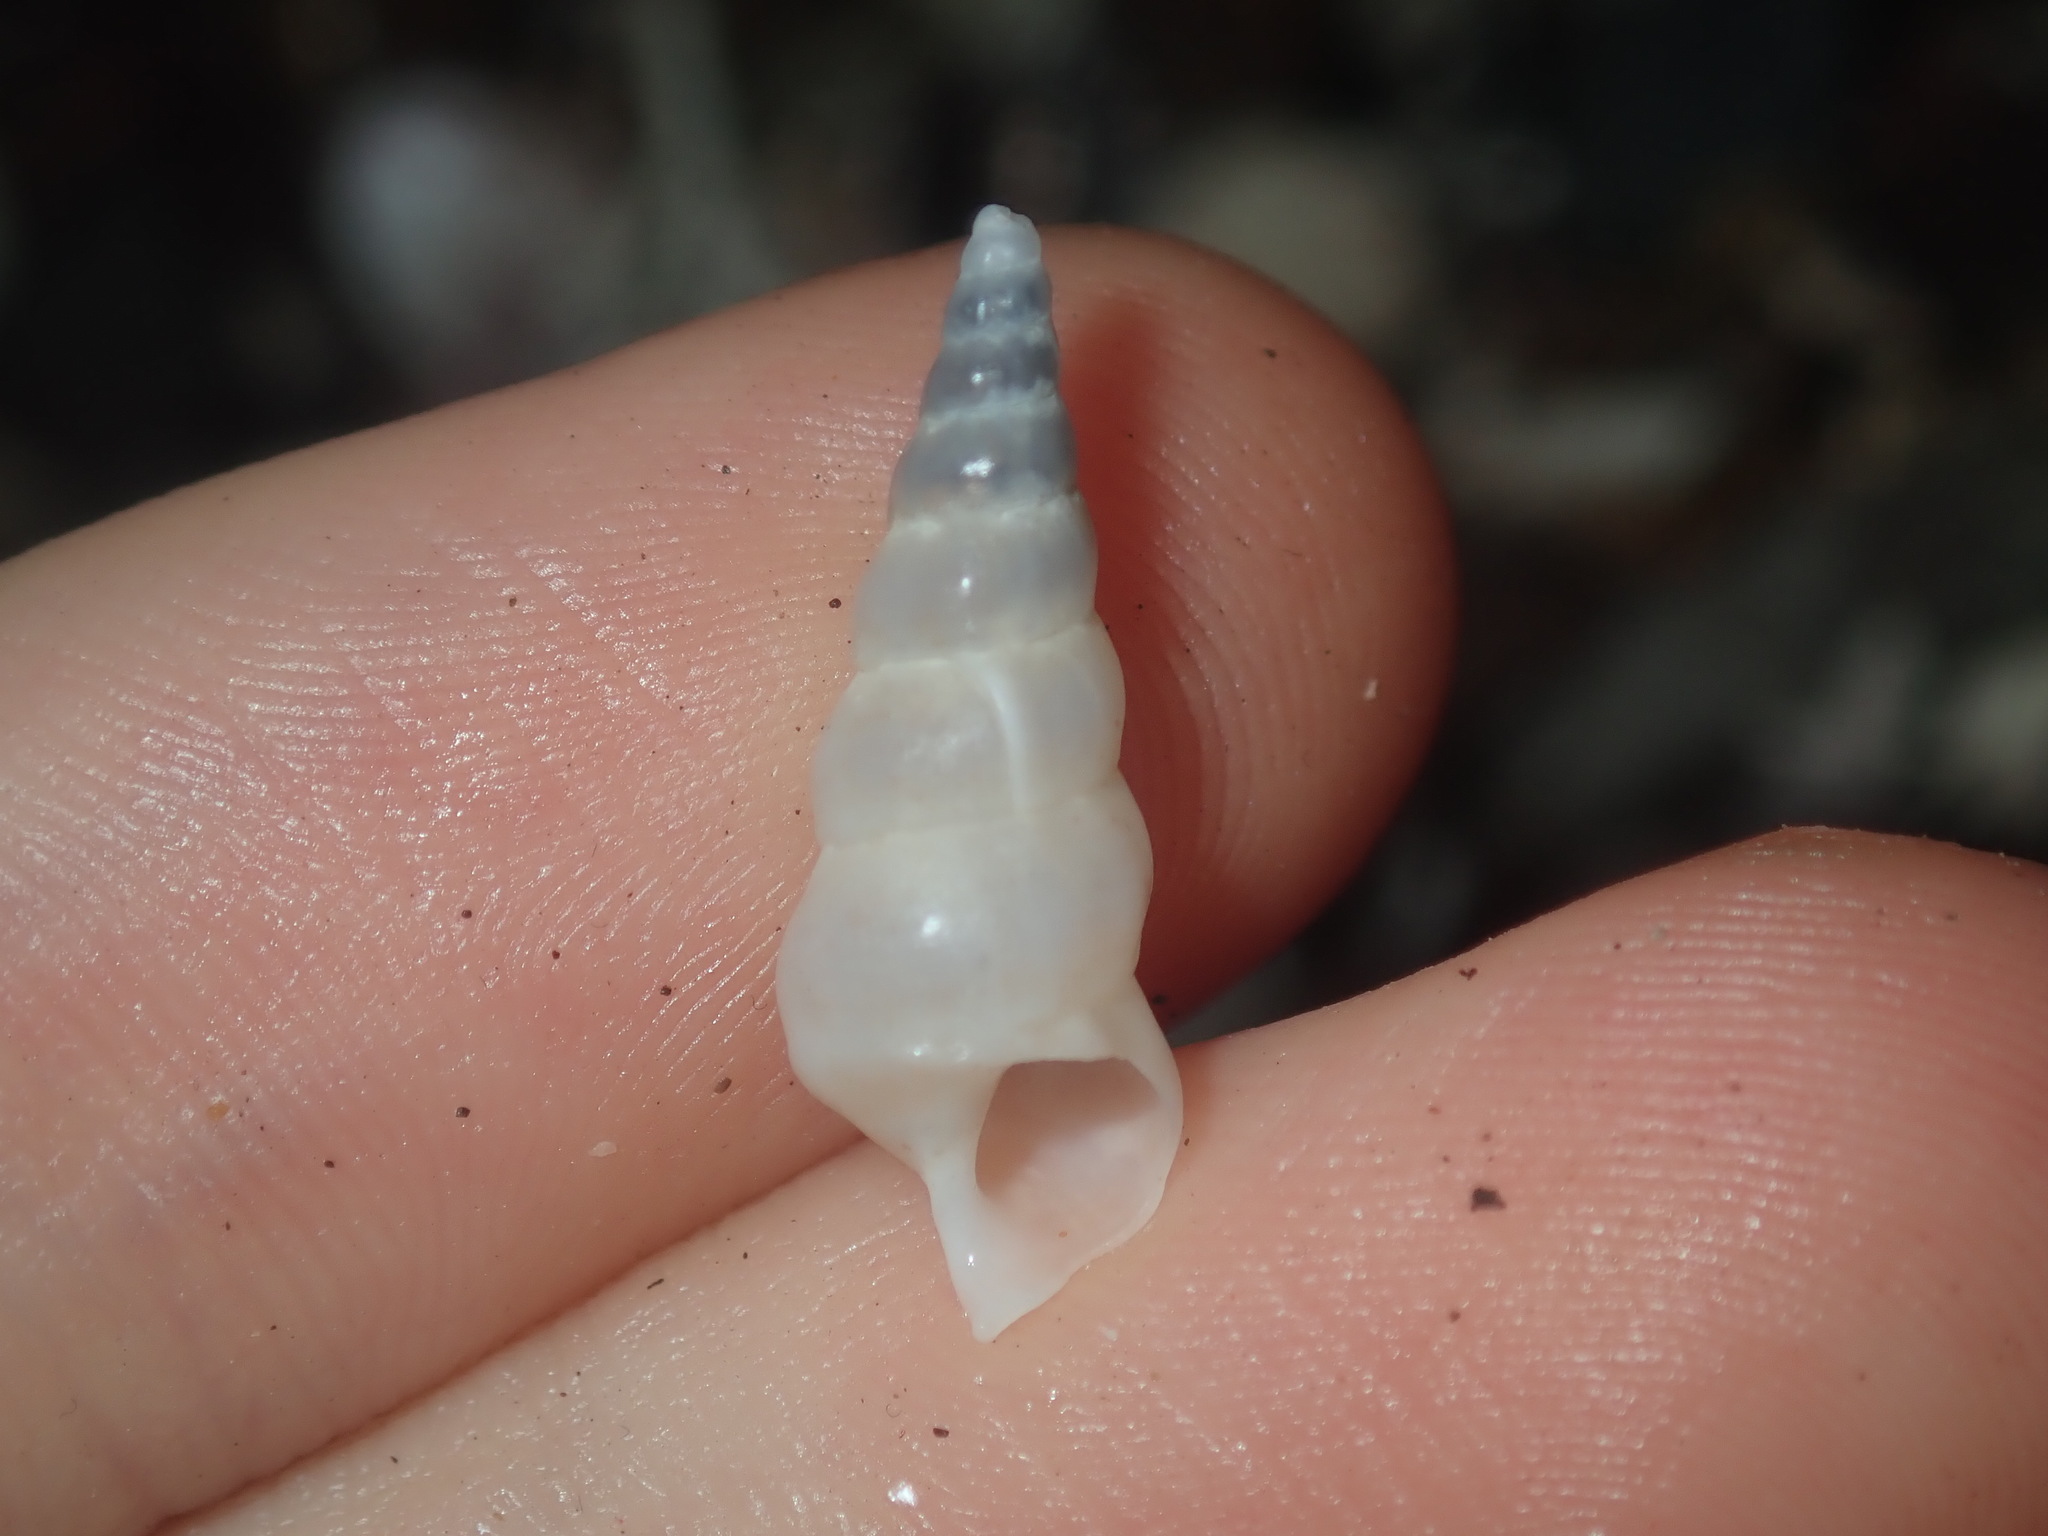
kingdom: Animalia
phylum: Mollusca
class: Gastropoda
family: Epitoniidae
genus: Opalia
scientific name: Opalia ballinensis
